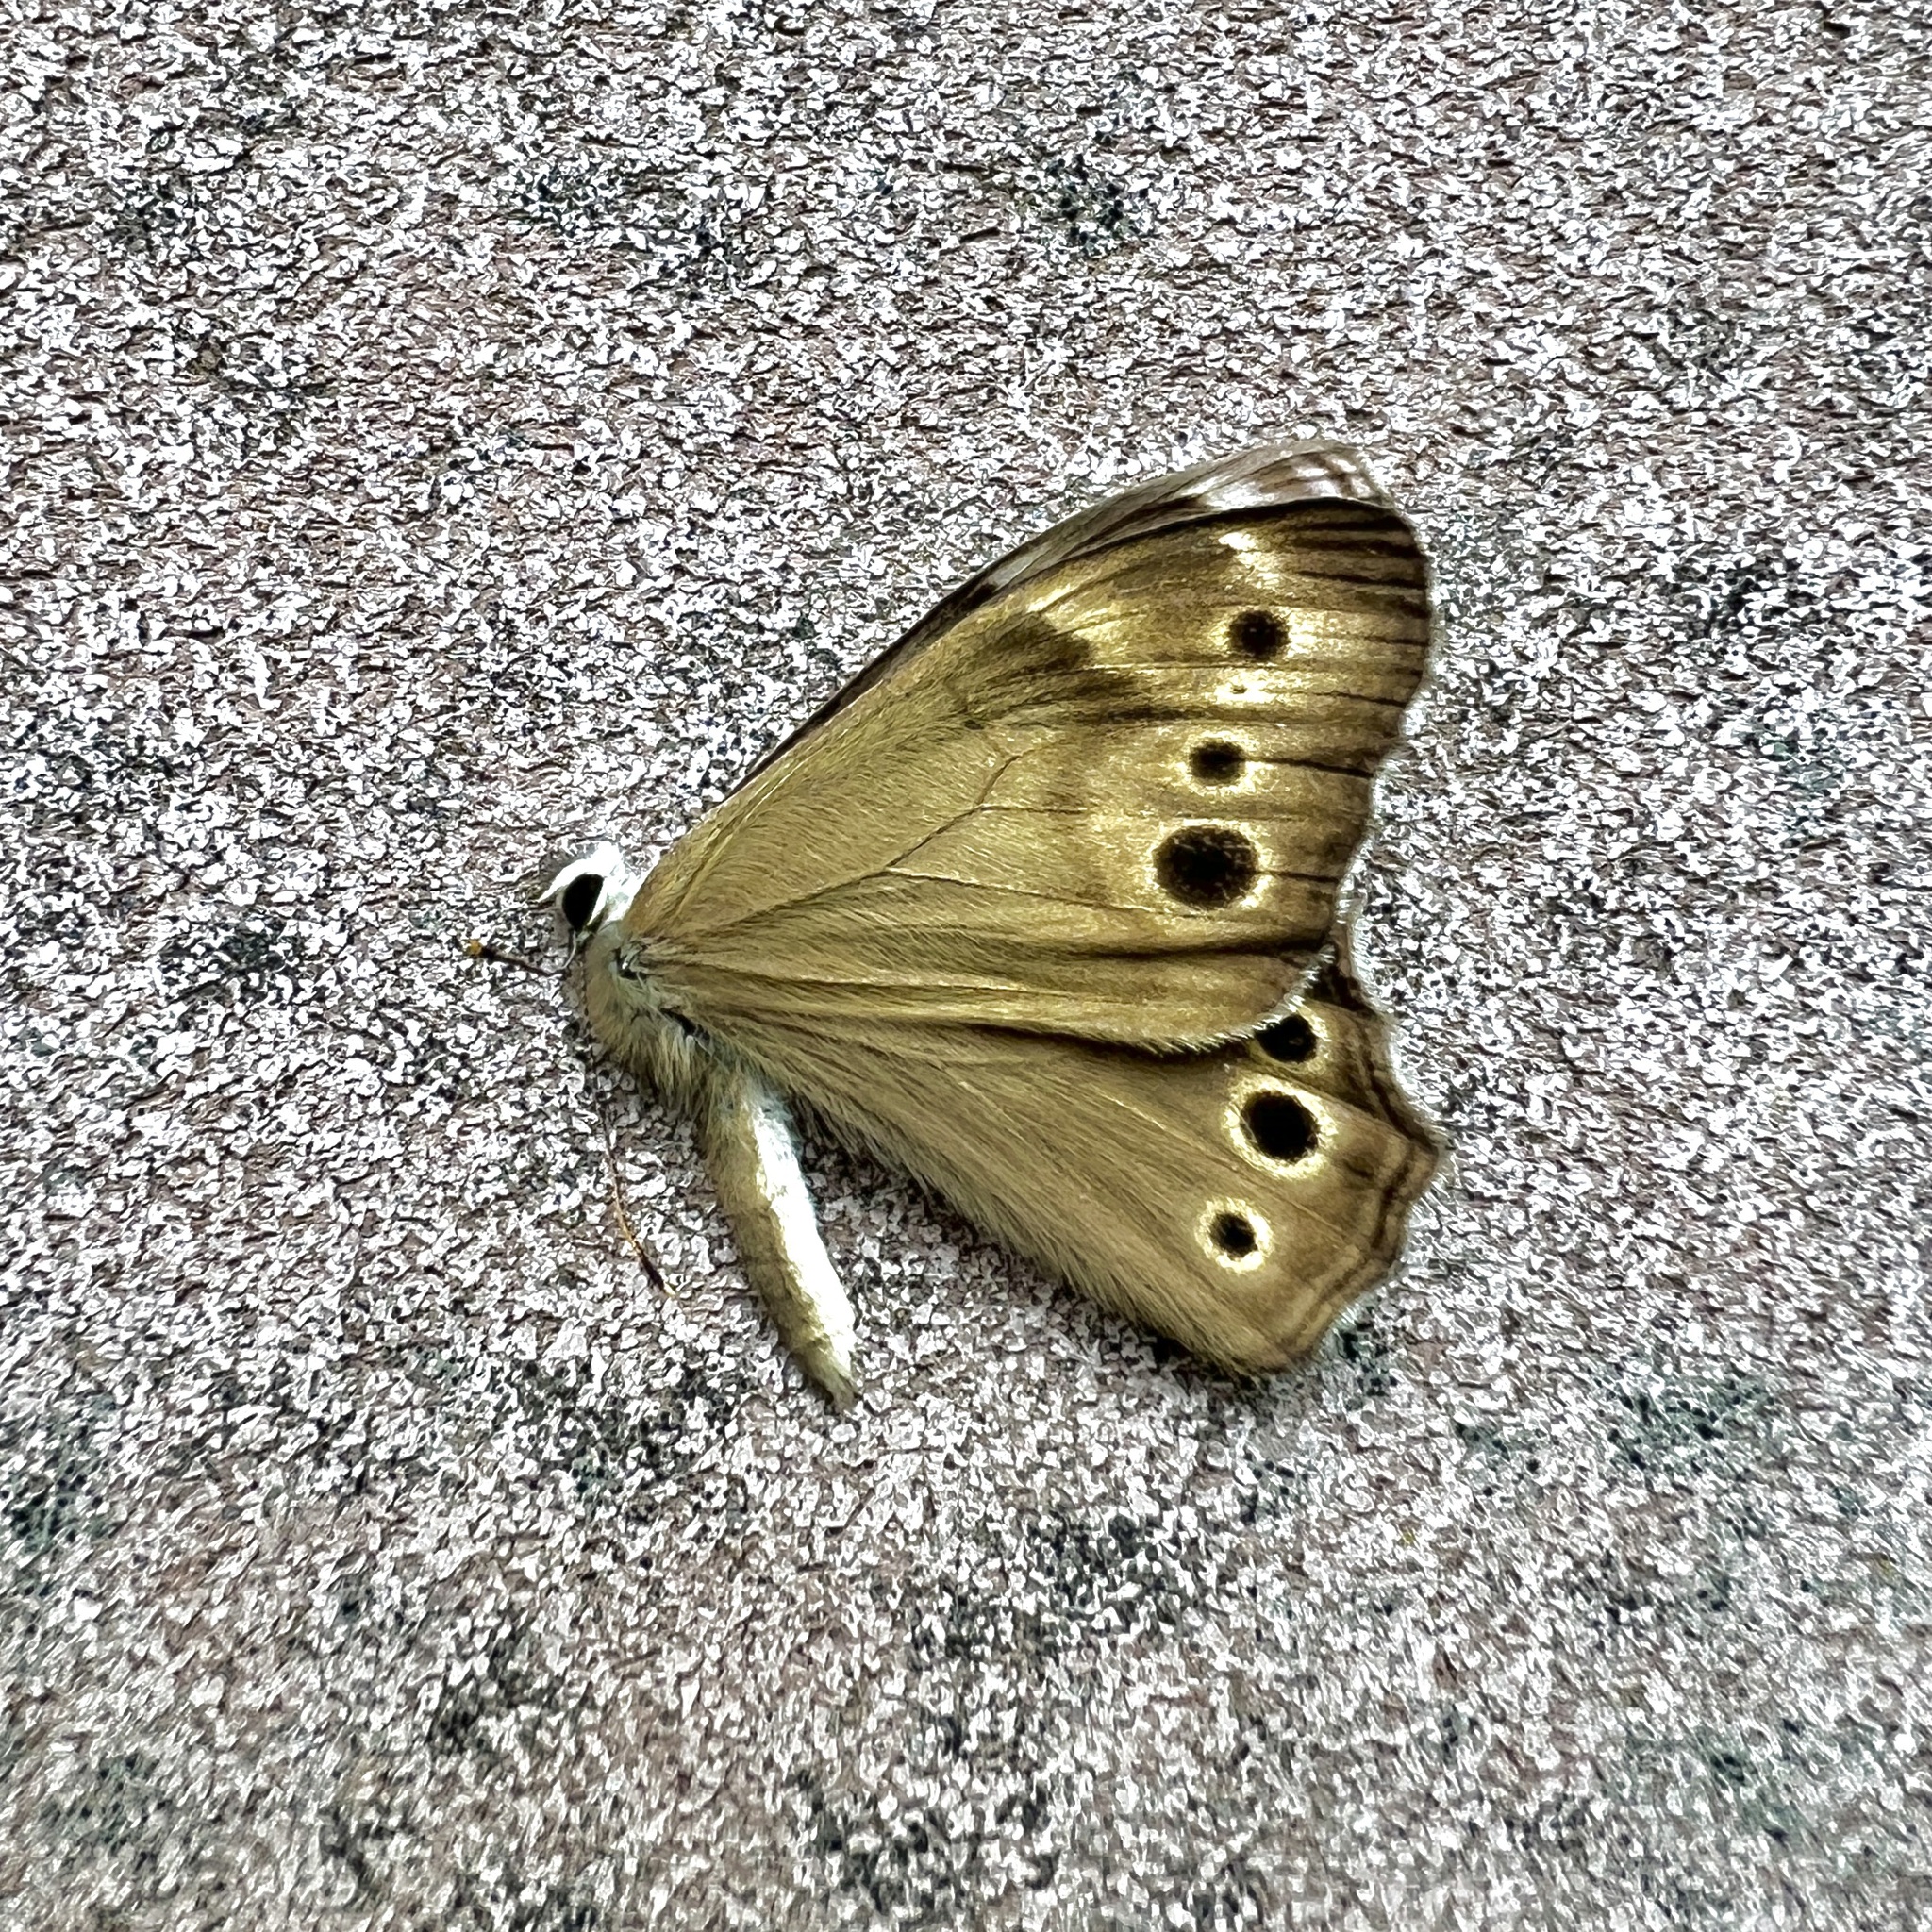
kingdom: Animalia
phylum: Arthropoda
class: Insecta
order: Lepidoptera
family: Nymphalidae
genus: Lethe
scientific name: Lethe anthedon
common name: Northern pearly-eye
